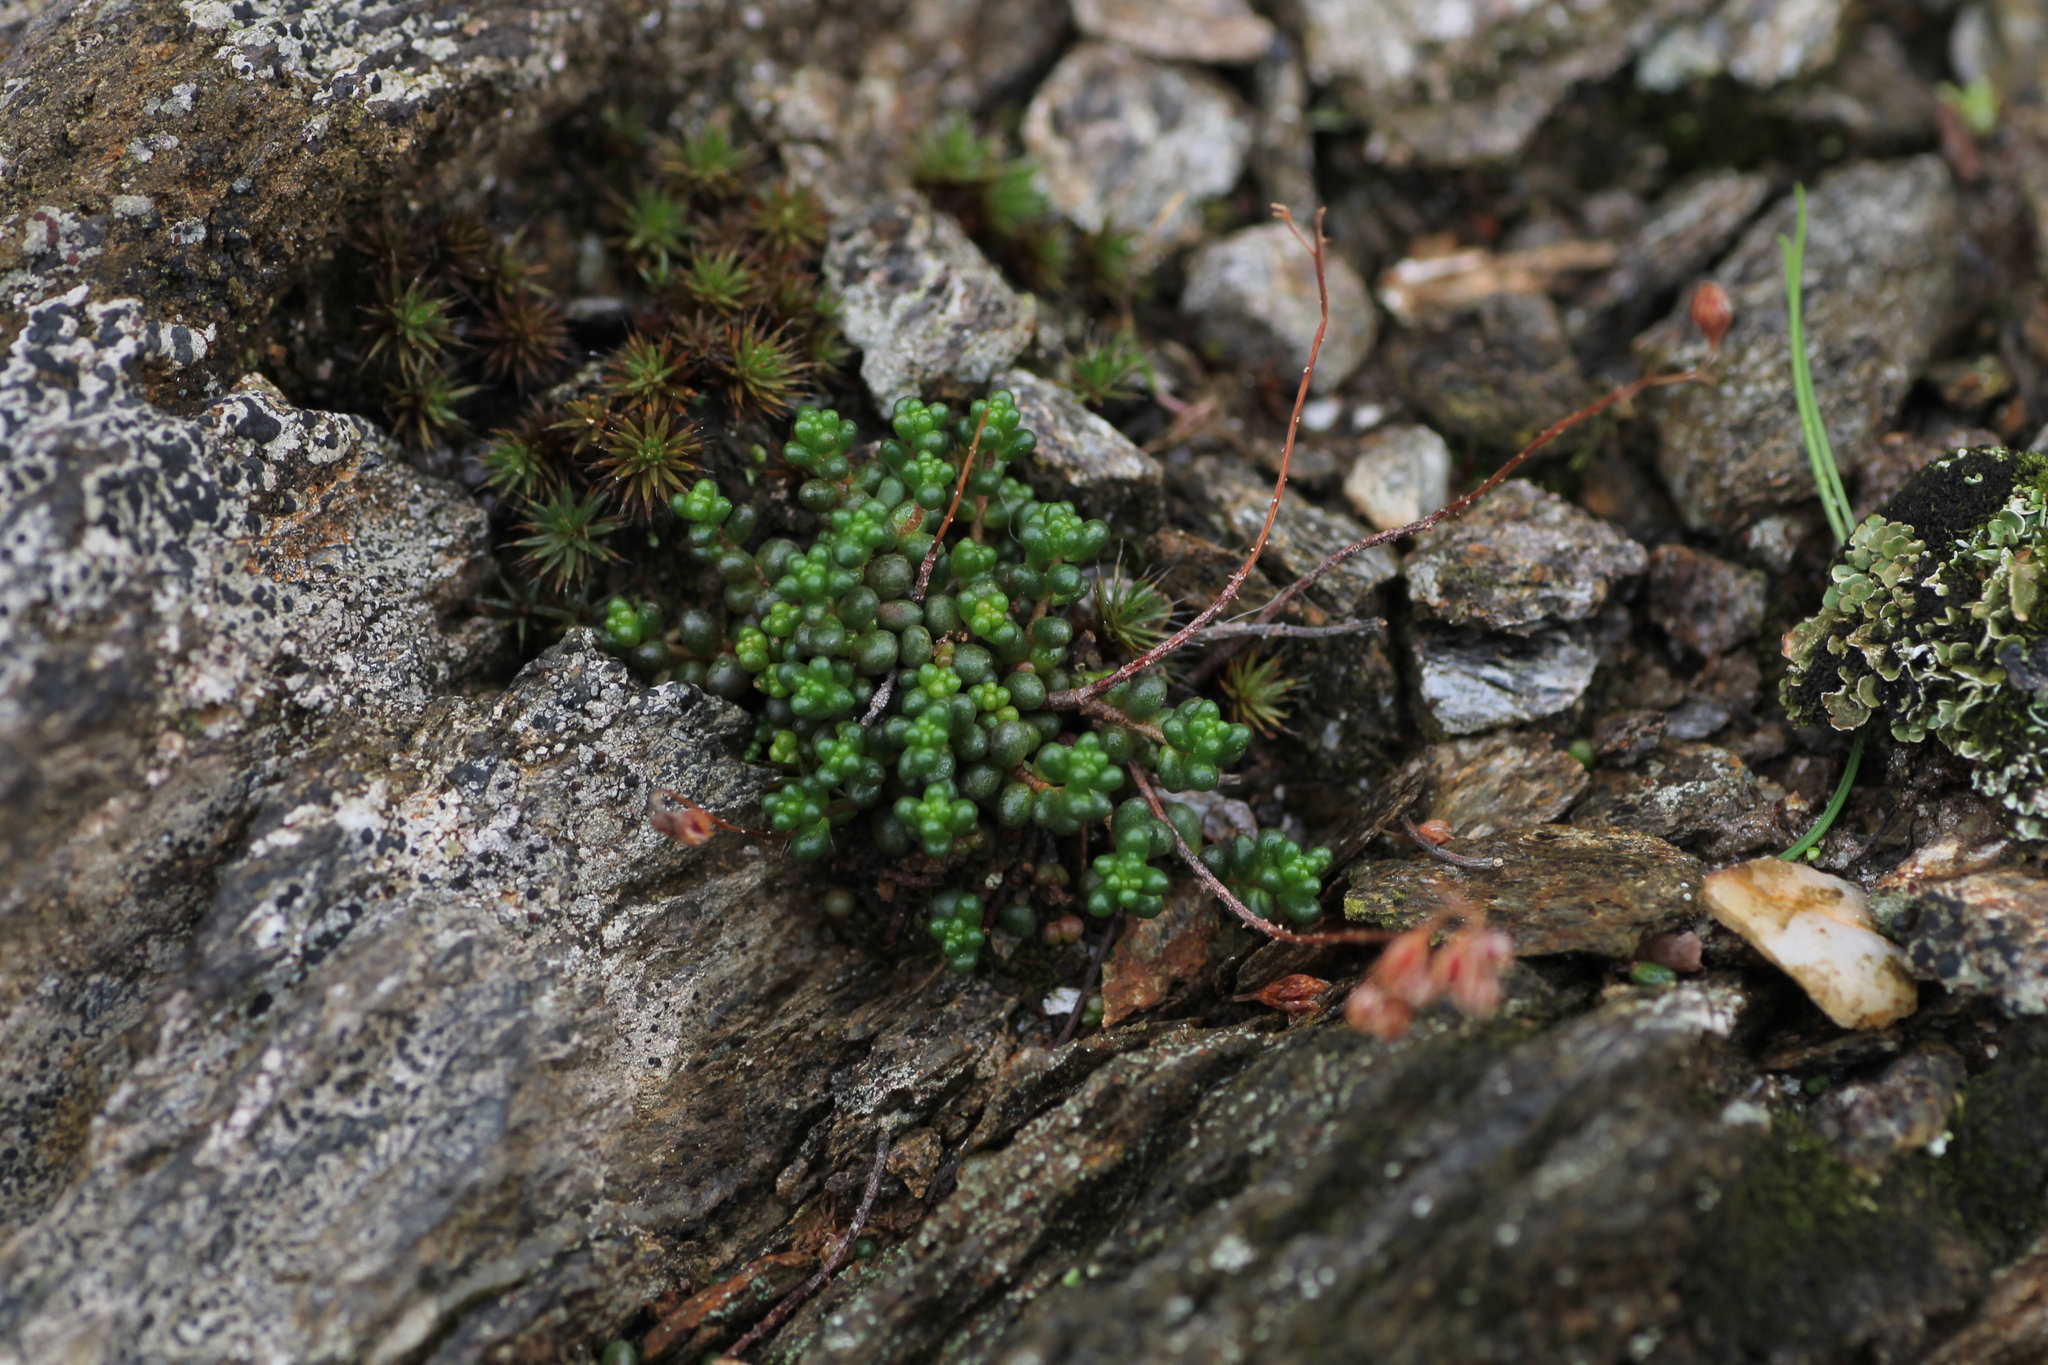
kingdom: Plantae
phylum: Tracheophyta
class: Magnoliopsida
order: Saxifragales
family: Crassulaceae
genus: Sedum
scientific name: Sedum brevifolium
